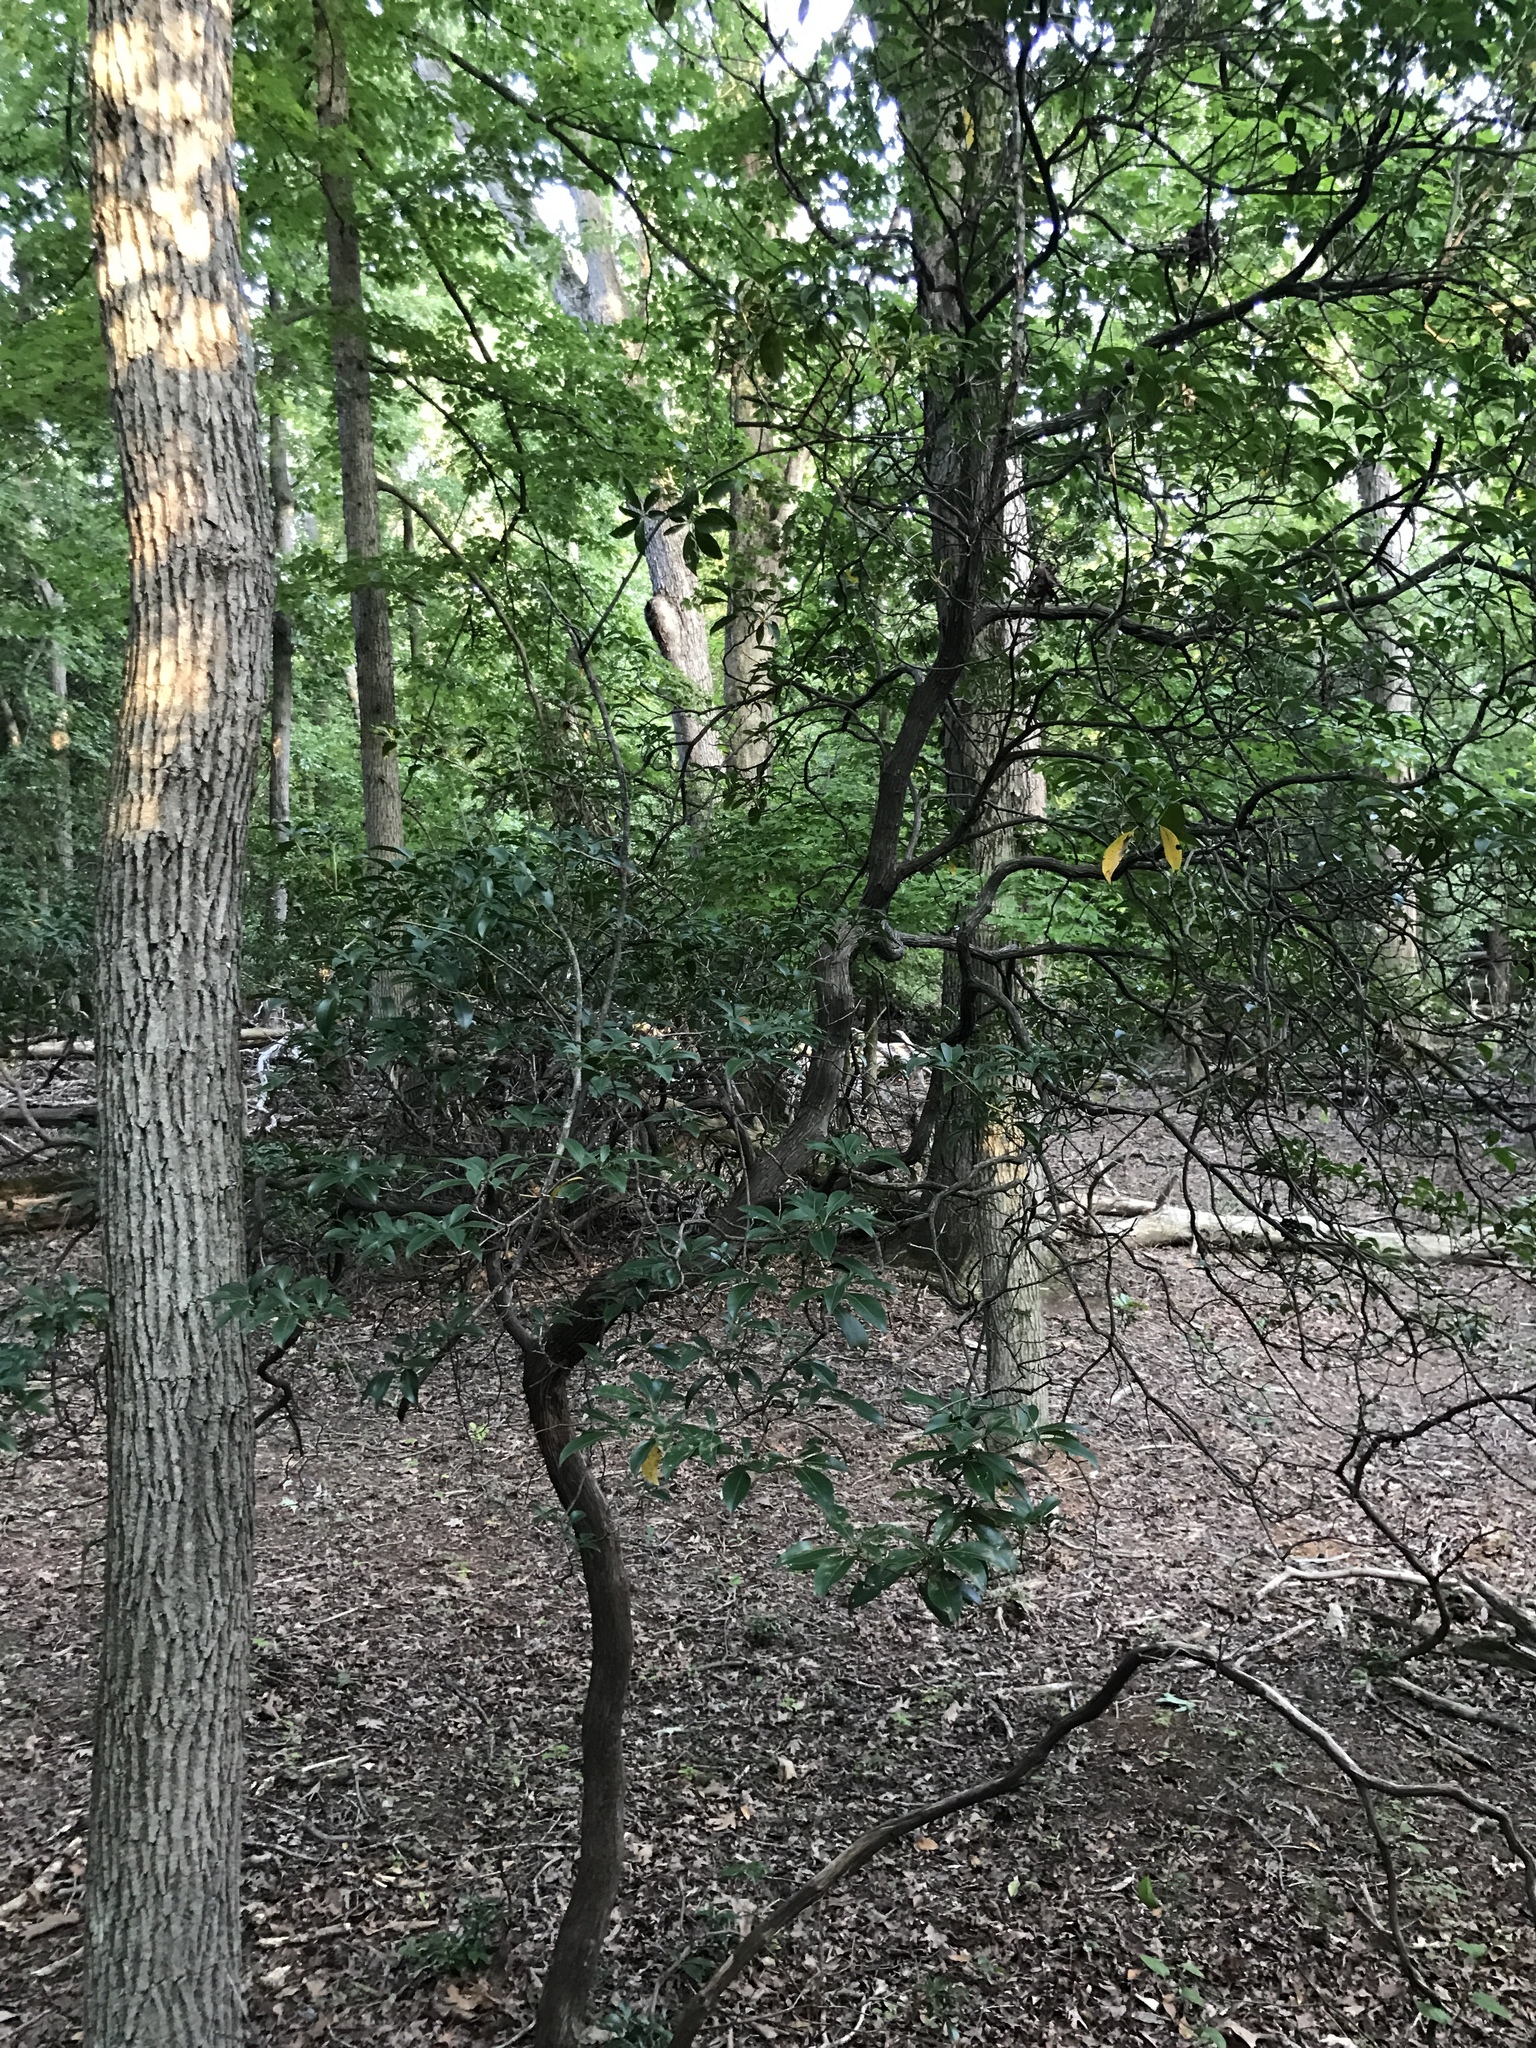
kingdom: Plantae
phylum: Tracheophyta
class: Magnoliopsida
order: Ericales
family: Ericaceae
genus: Kalmia
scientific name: Kalmia latifolia
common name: Mountain-laurel
